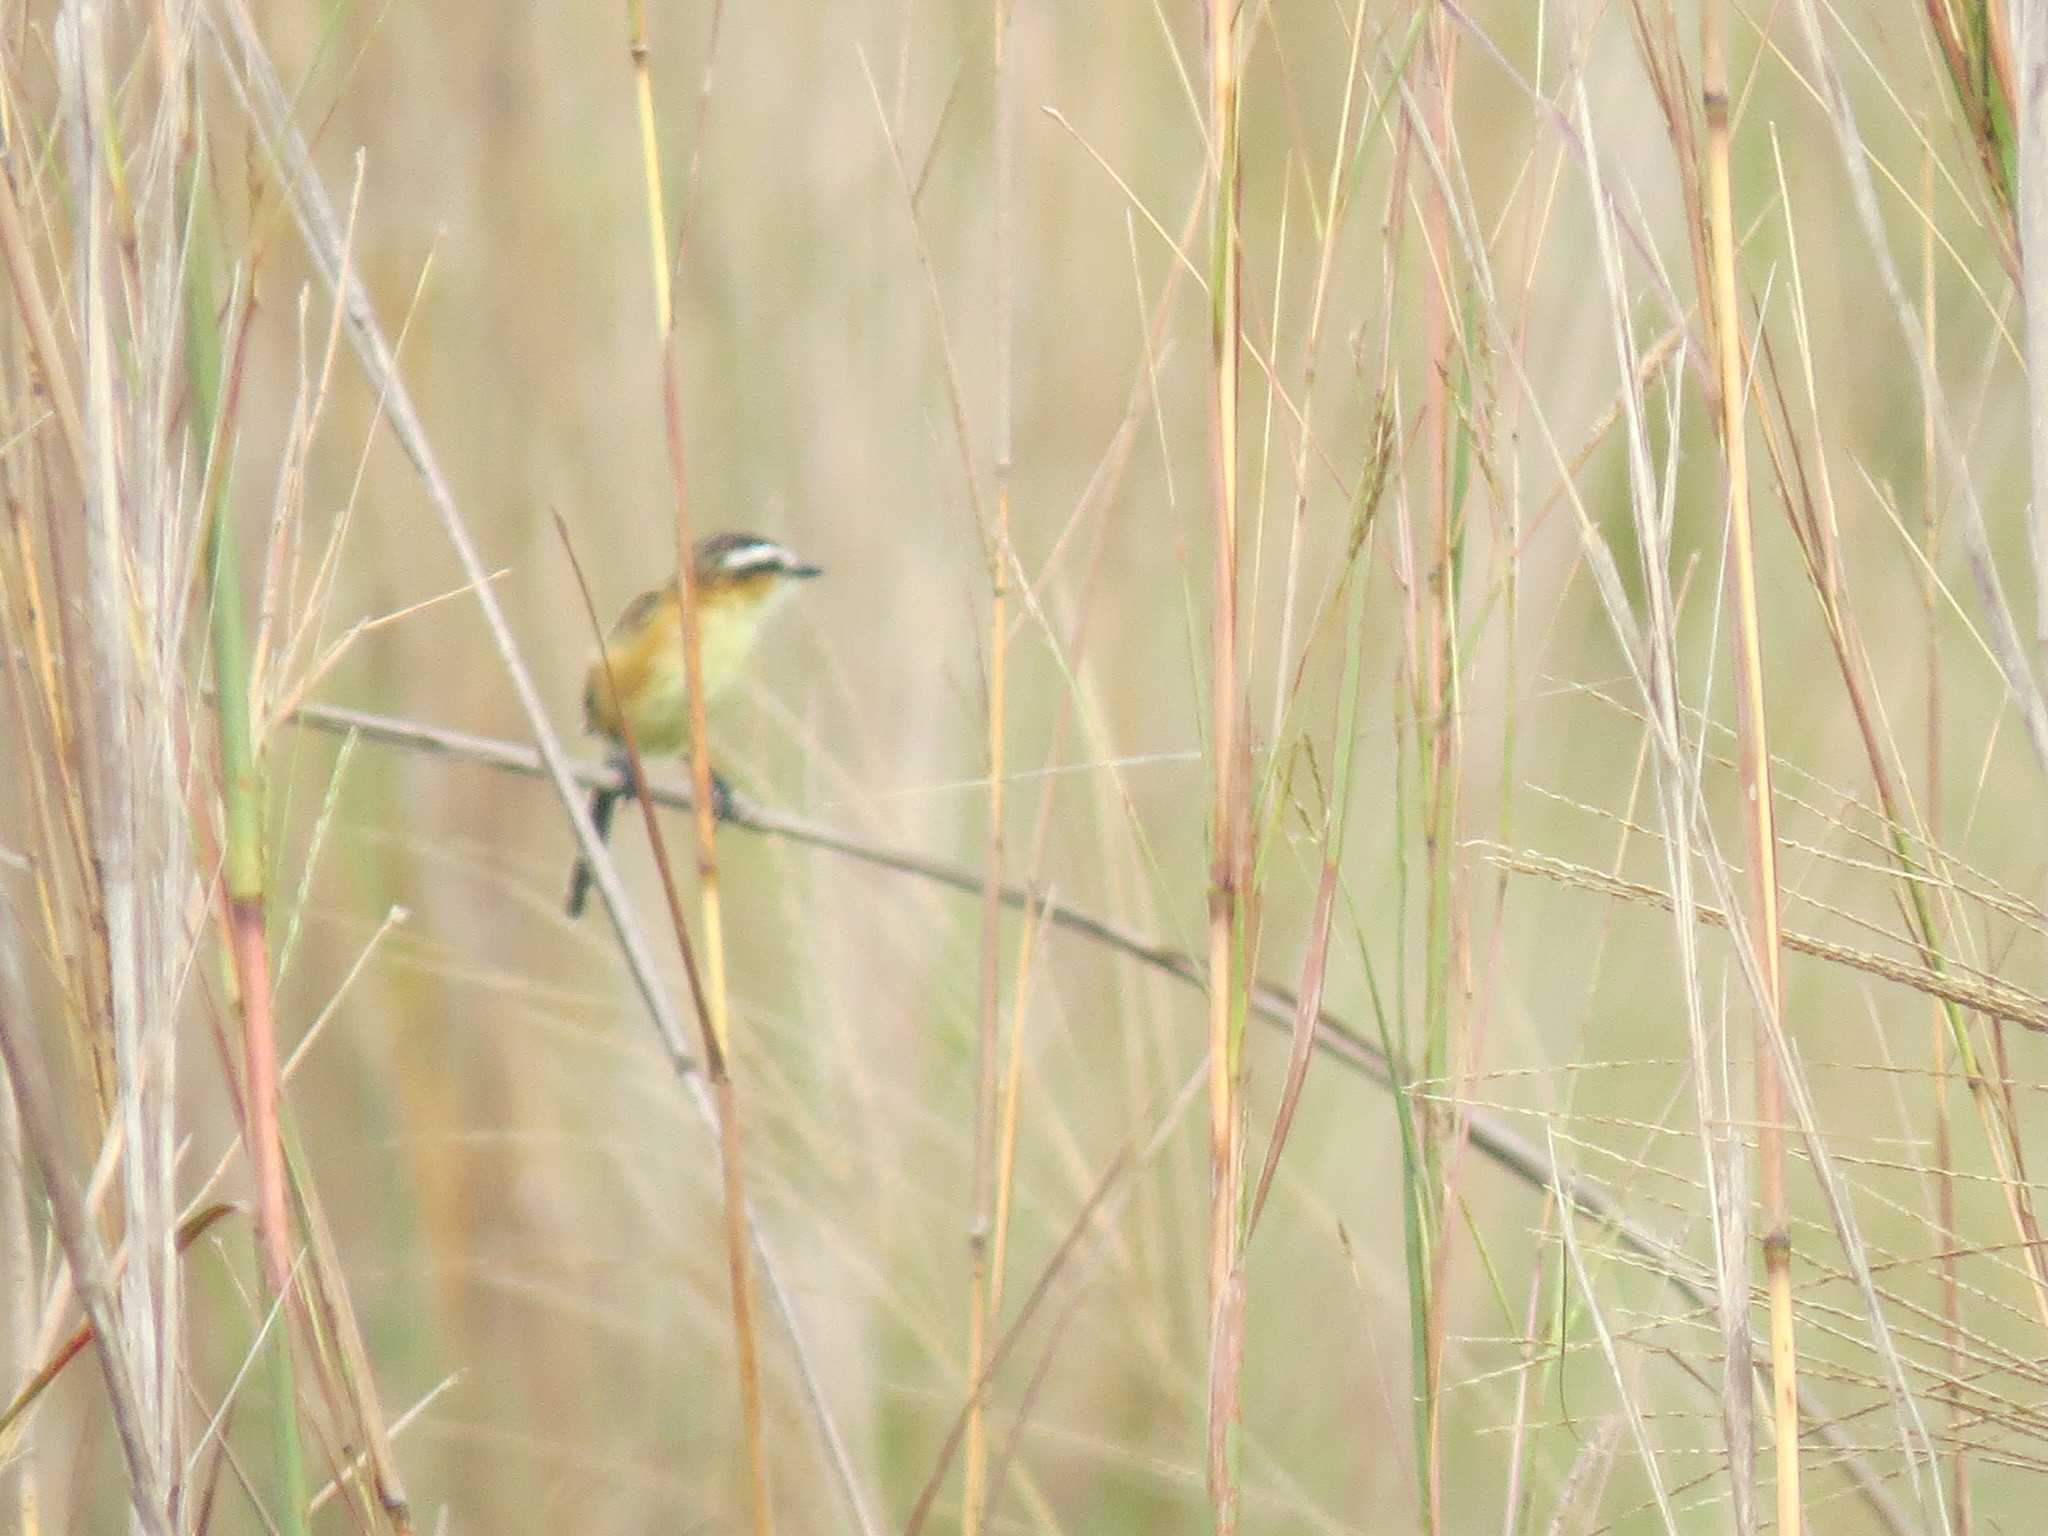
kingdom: Animalia
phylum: Chordata
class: Aves
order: Passeriformes
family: Tyrannidae
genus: Culicivora
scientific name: Culicivora caudacuta
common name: Sharp-tailed grass tyrant
